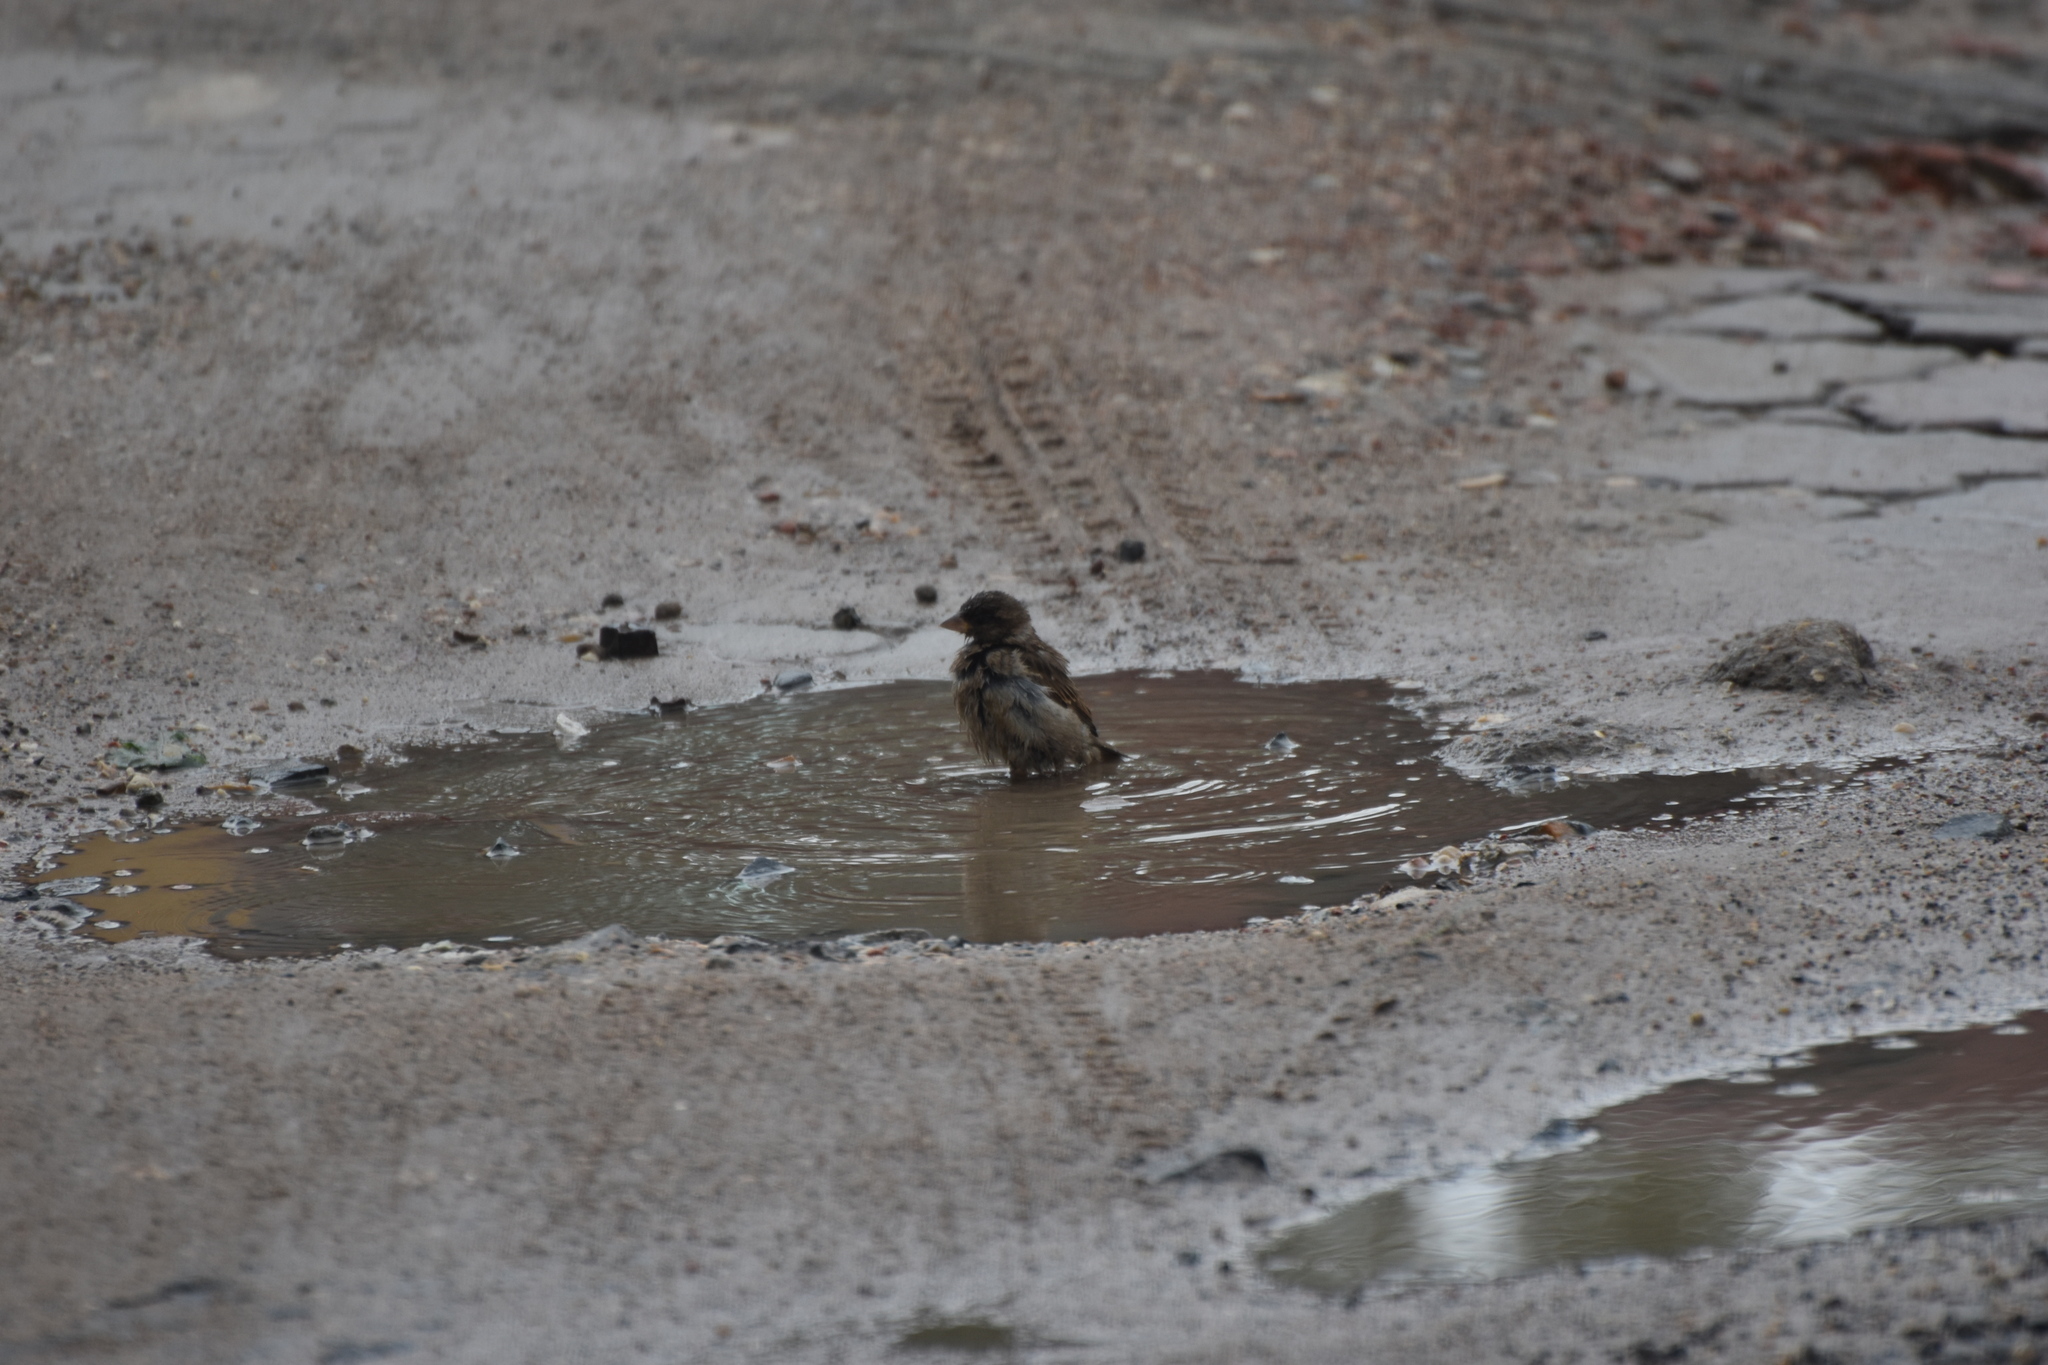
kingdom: Animalia
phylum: Chordata
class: Aves
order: Passeriformes
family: Passeridae
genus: Passer
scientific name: Passer domesticus
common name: House sparrow
